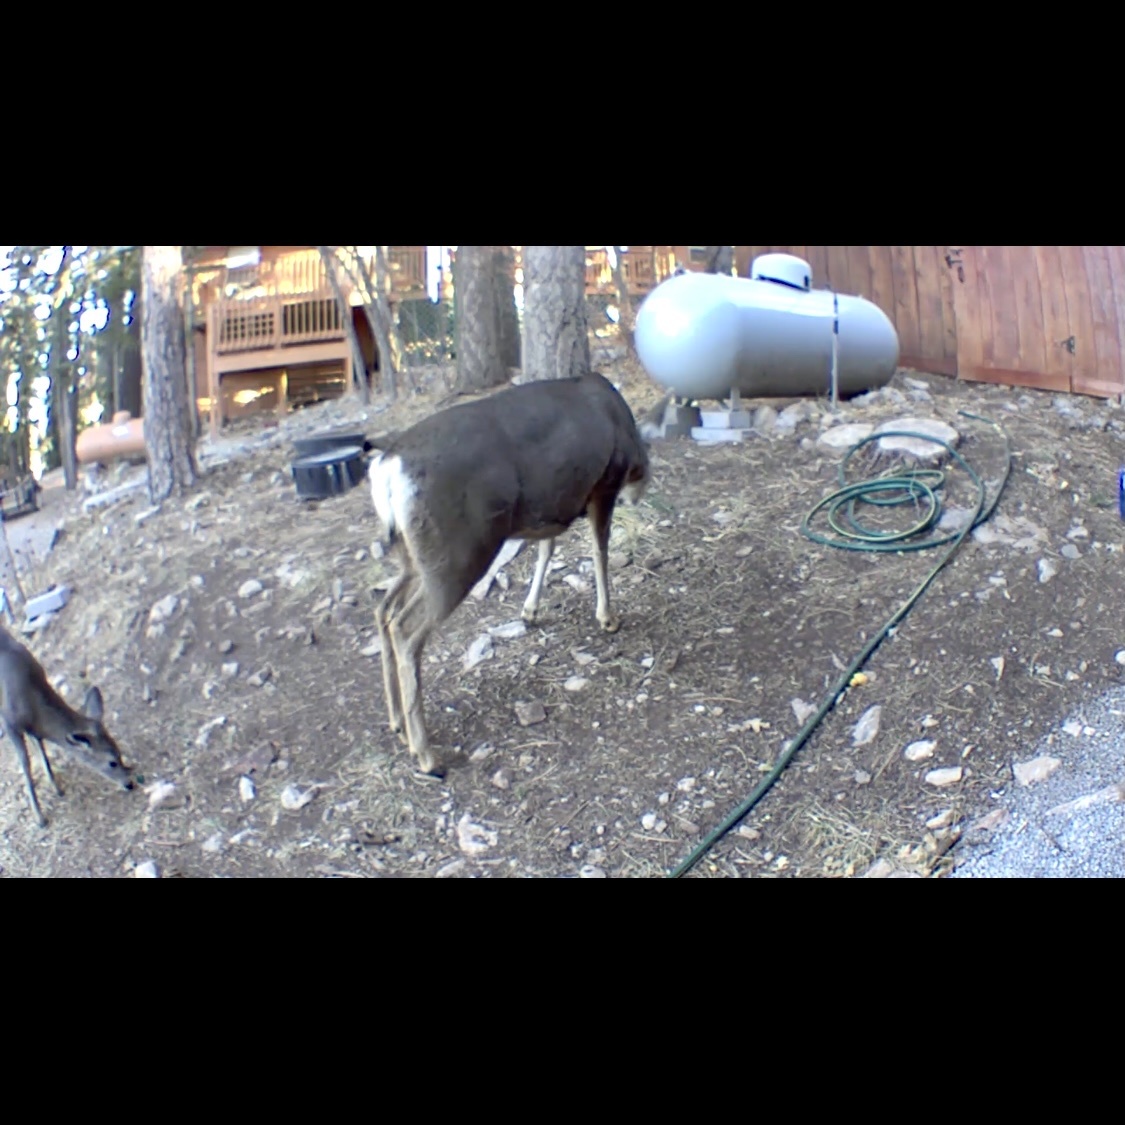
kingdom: Animalia
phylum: Chordata
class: Mammalia
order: Artiodactyla
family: Cervidae
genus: Odocoileus
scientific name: Odocoileus hemionus
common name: Mule deer
